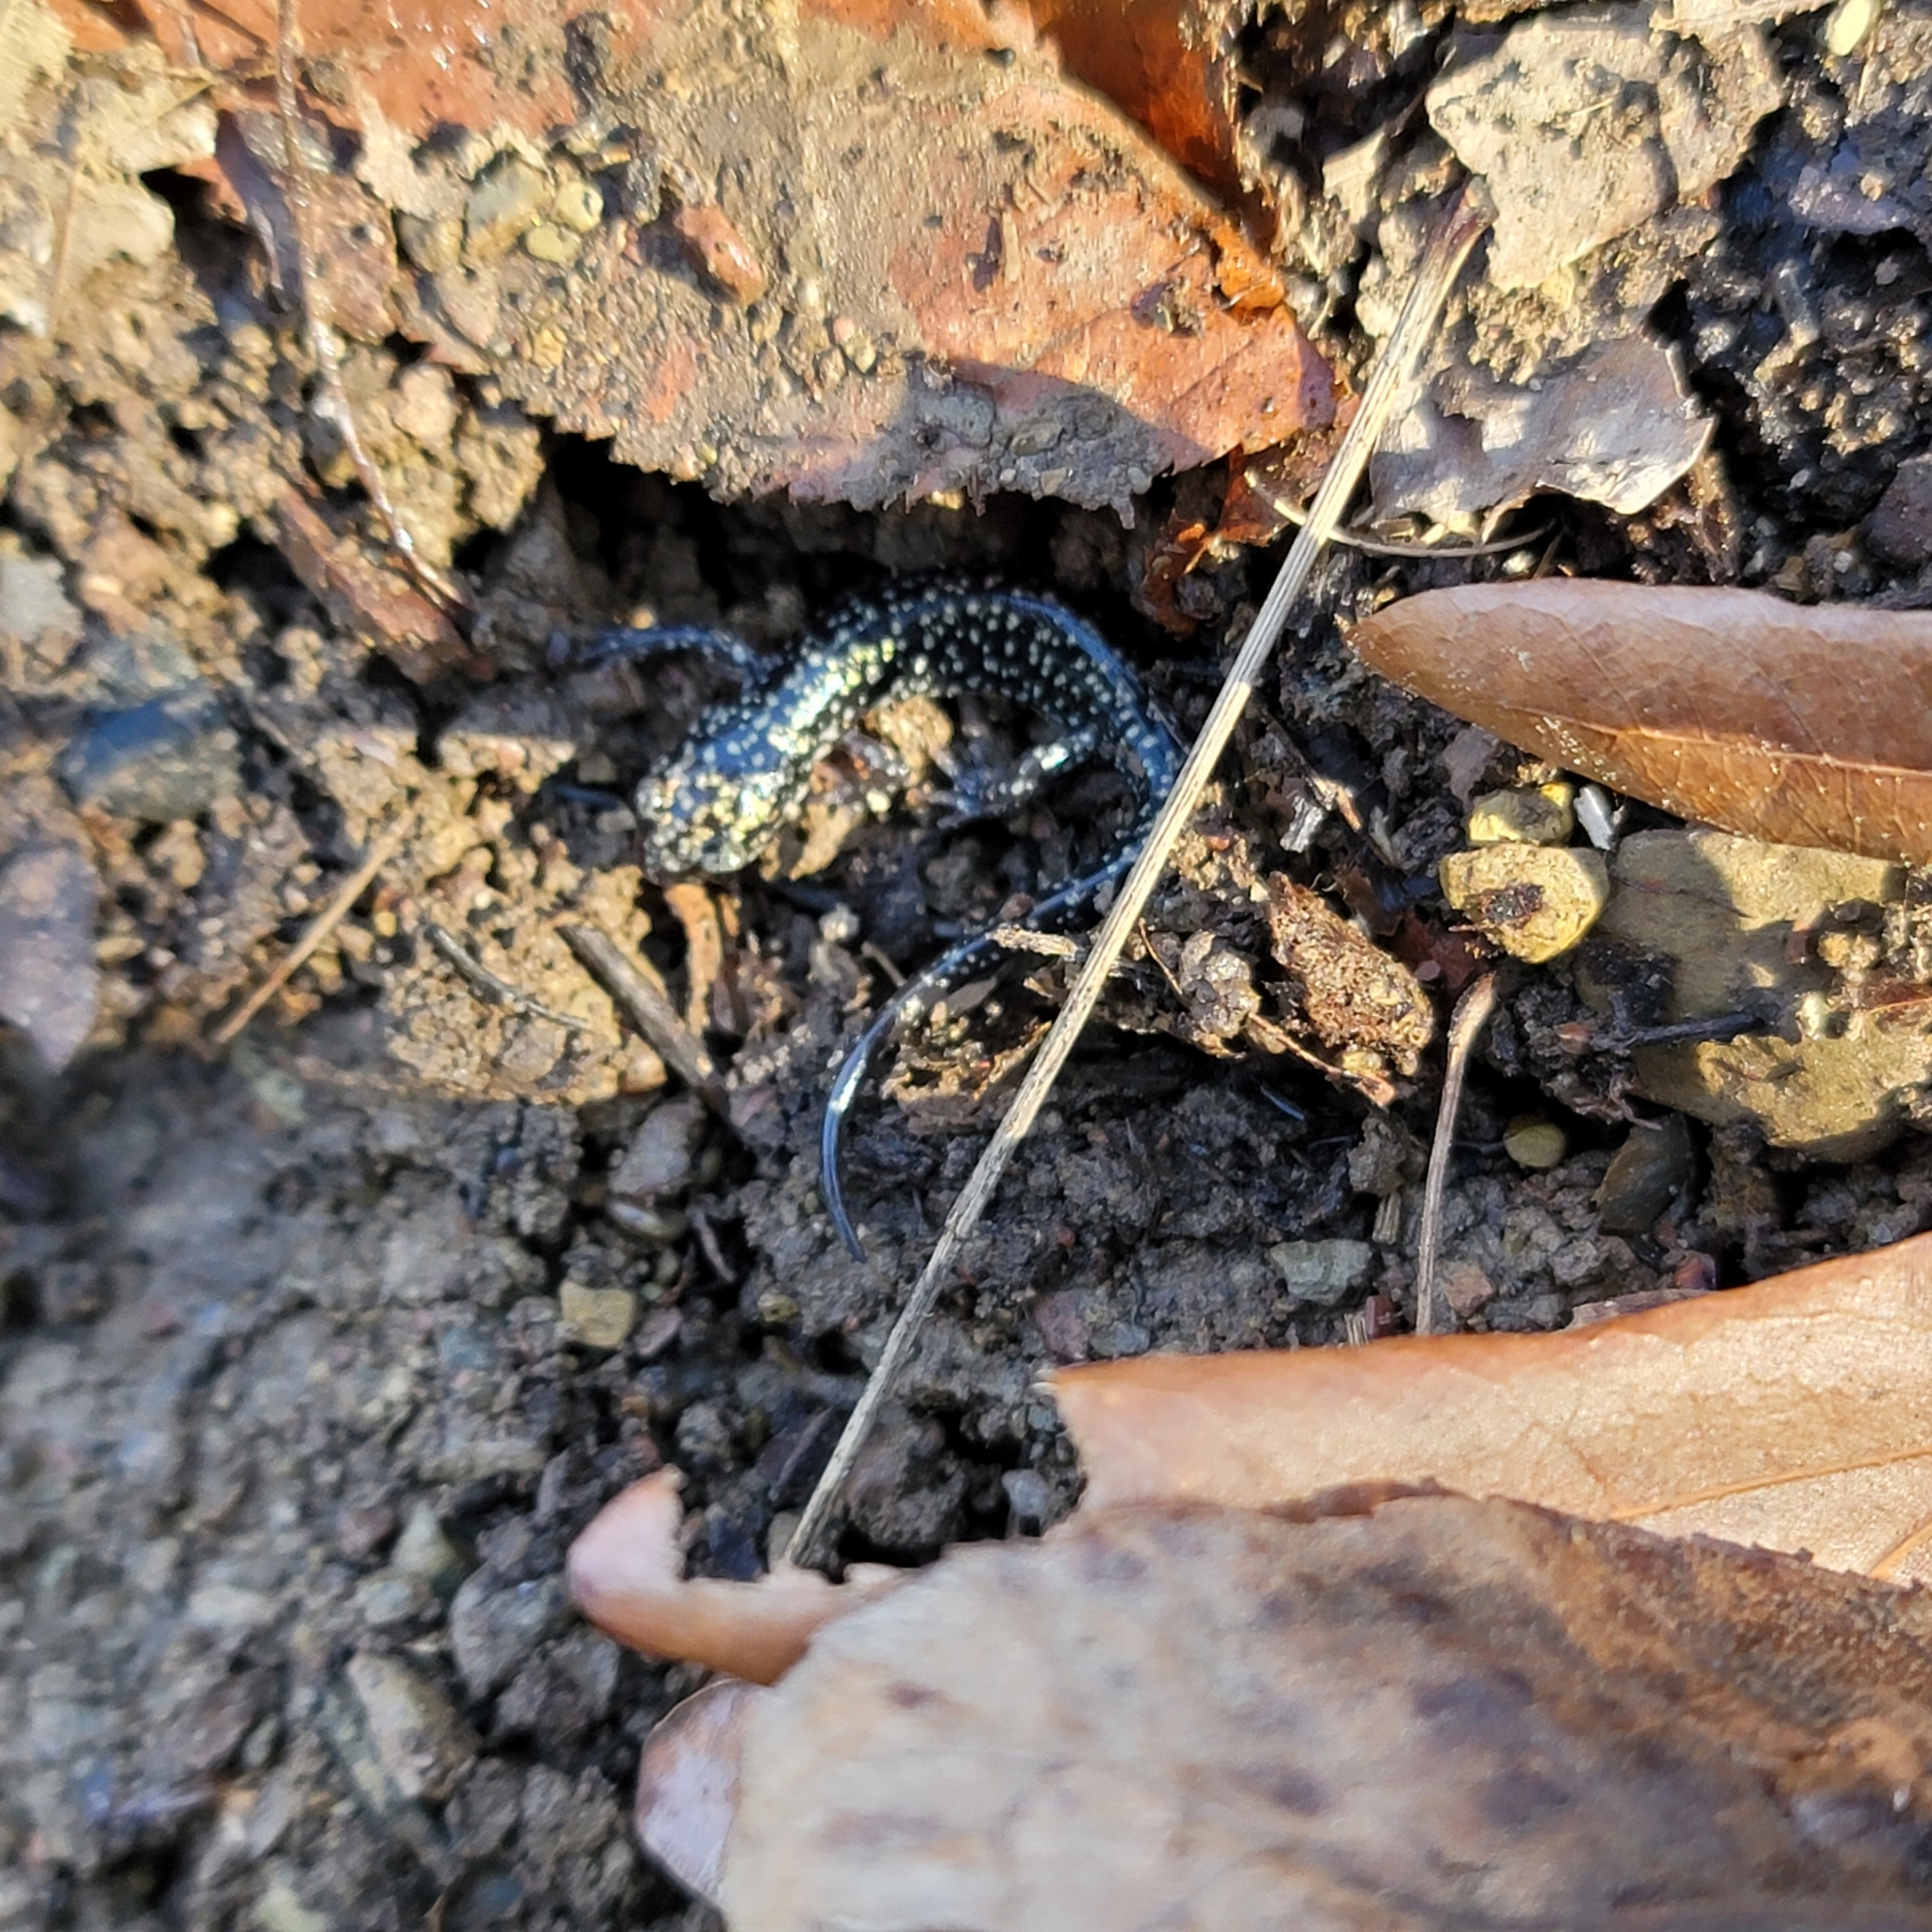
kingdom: Animalia
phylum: Chordata
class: Amphibia
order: Caudata
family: Plethodontidae
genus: Plethodon
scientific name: Plethodon glutinosus
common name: Northern slimy salamander
